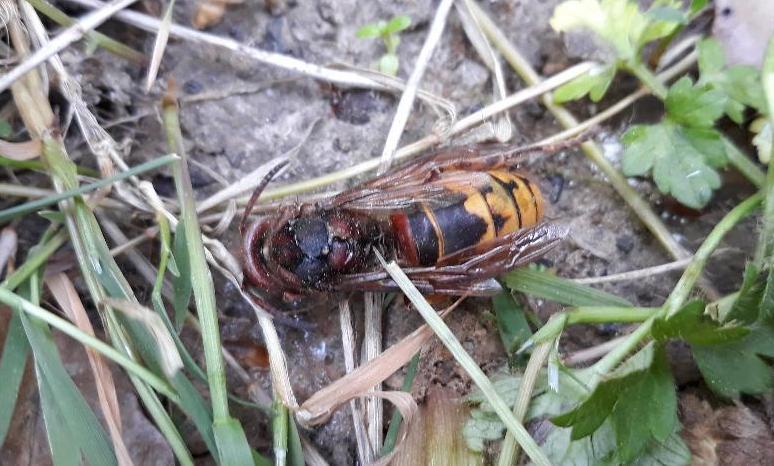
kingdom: Animalia
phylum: Arthropoda
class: Insecta
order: Hymenoptera
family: Vespidae
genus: Vespa
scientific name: Vespa crabro
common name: Hornet
